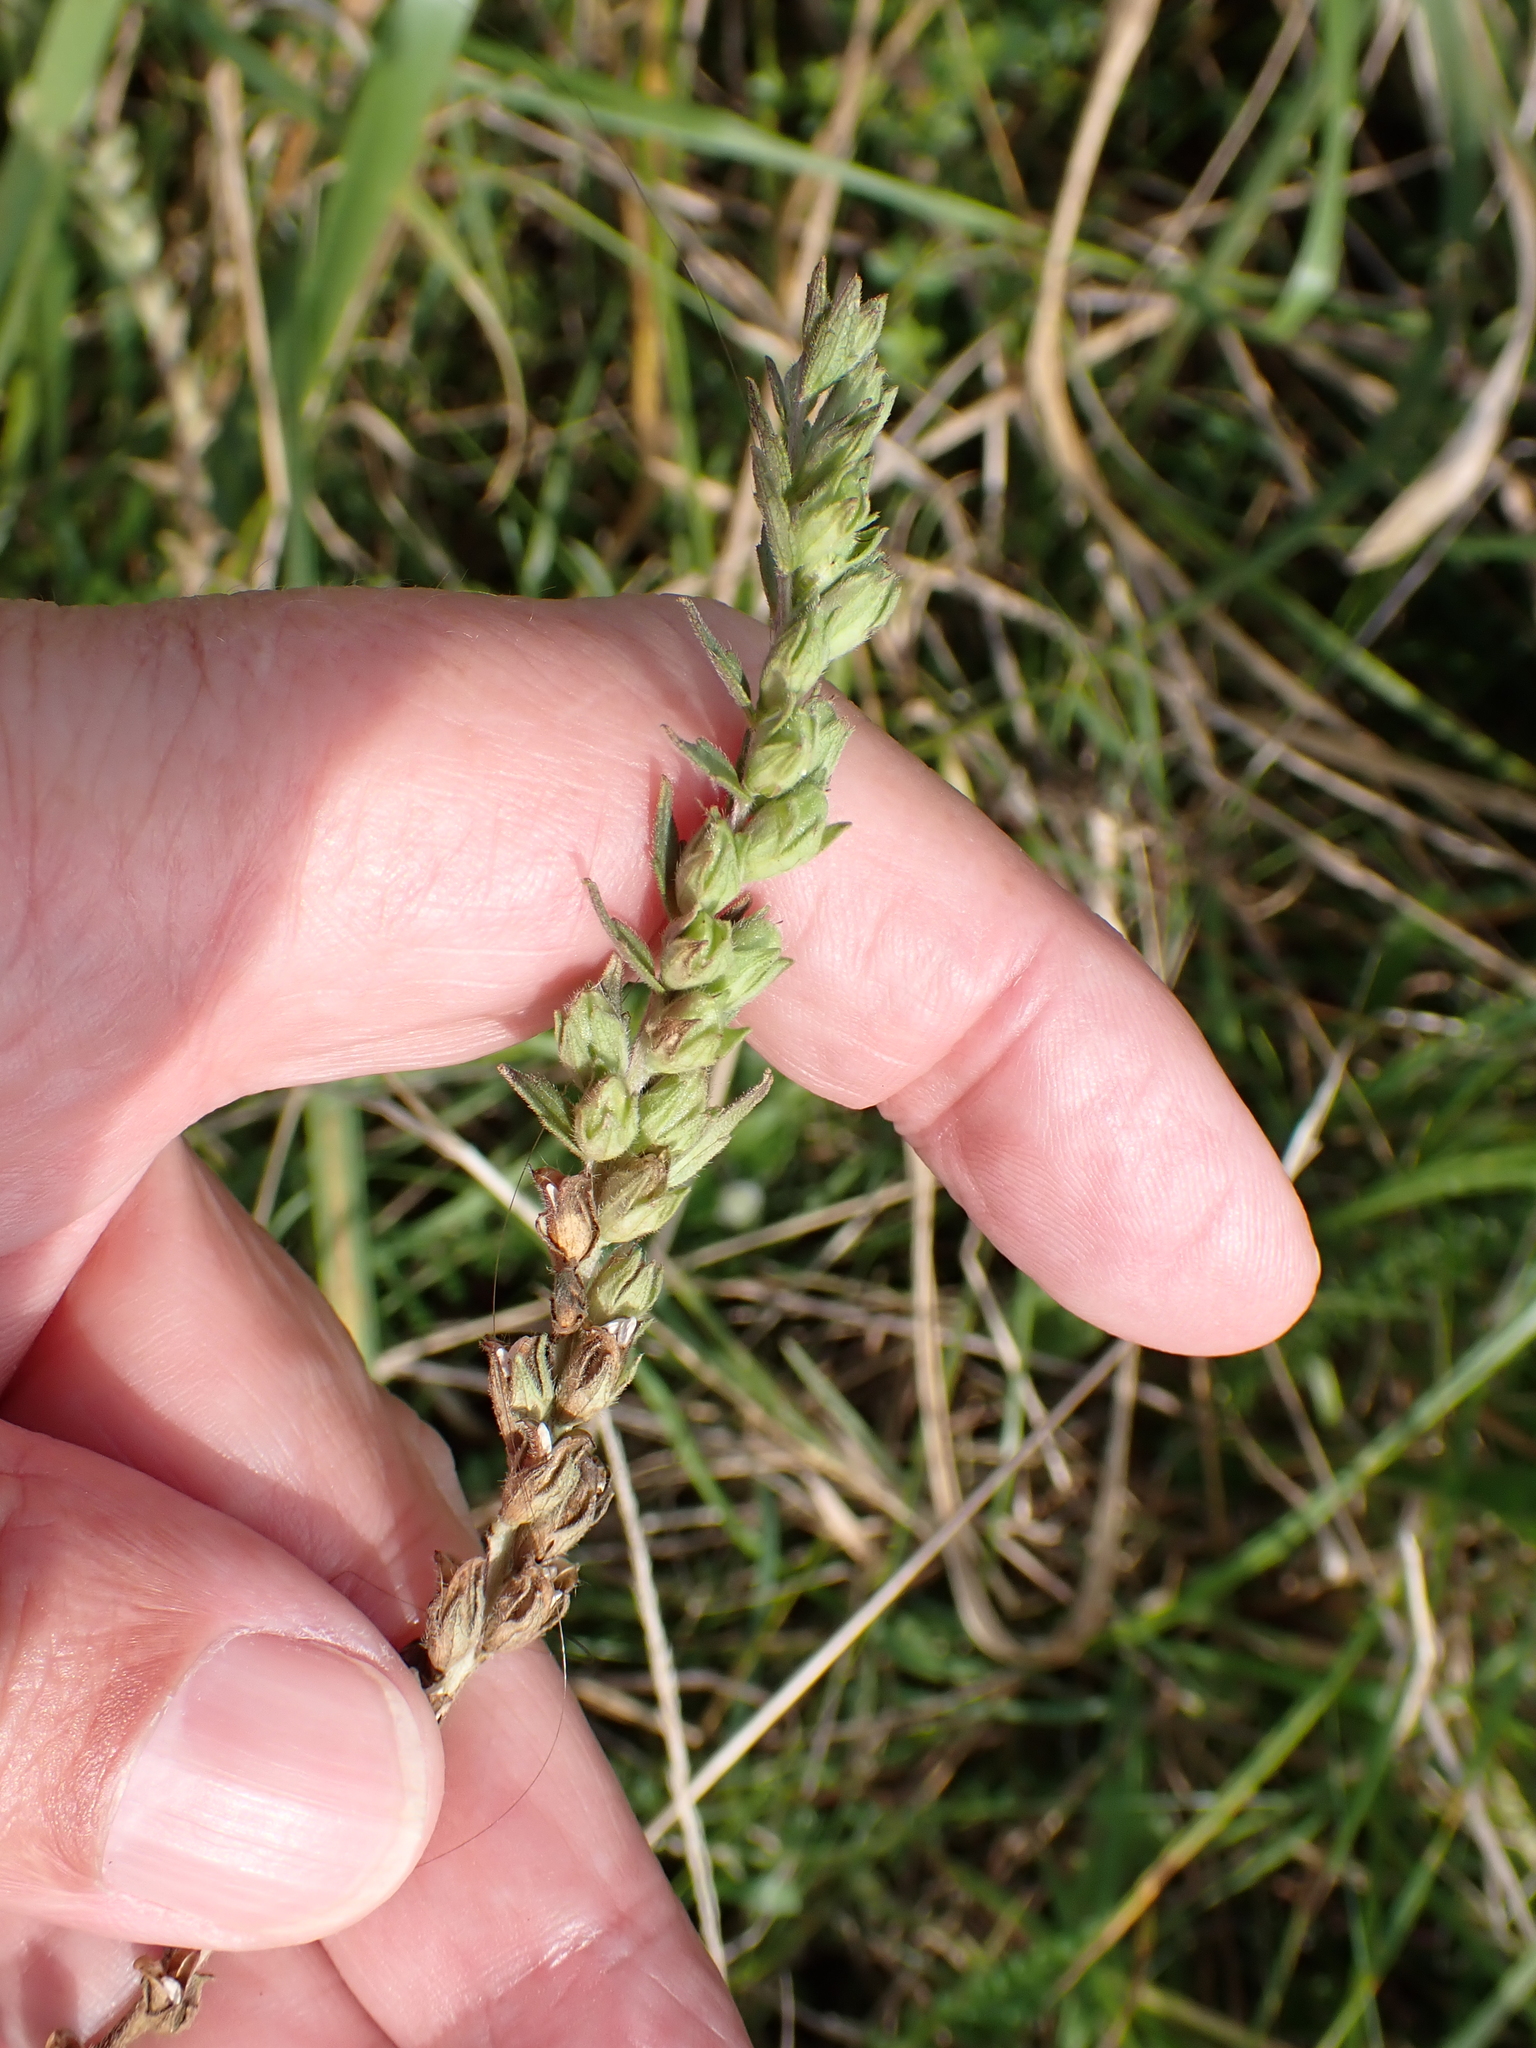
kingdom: Plantae
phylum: Tracheophyta
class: Magnoliopsida
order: Lamiales
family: Orobanchaceae
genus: Odontites
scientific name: Odontites vulgaris
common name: Broomrape
